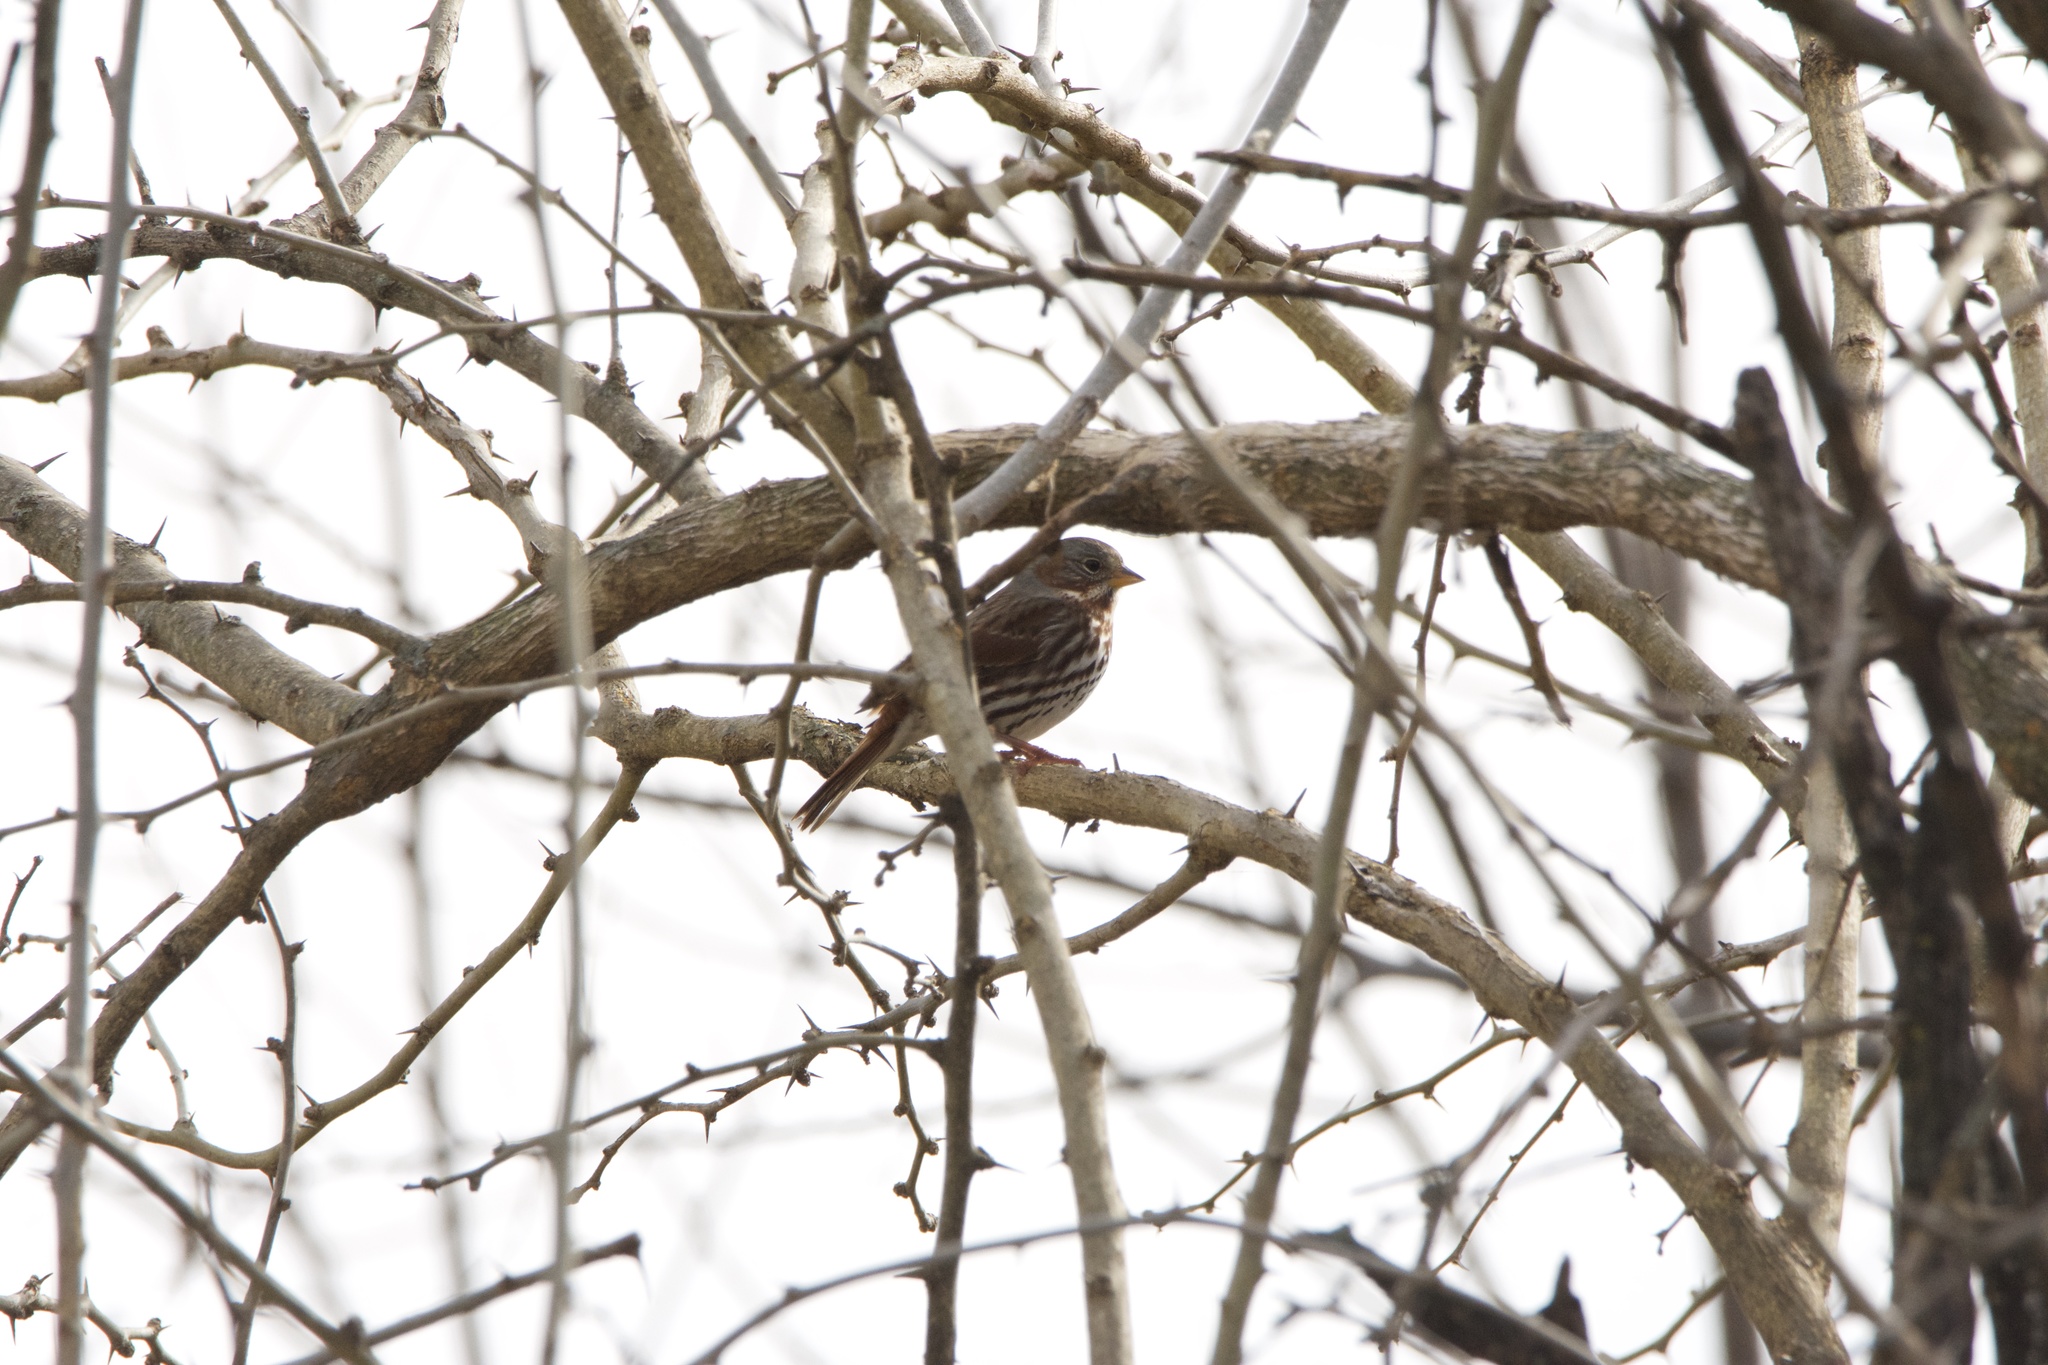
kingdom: Animalia
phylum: Chordata
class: Aves
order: Passeriformes
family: Passerellidae
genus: Passerella
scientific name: Passerella iliaca
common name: Fox sparrow
